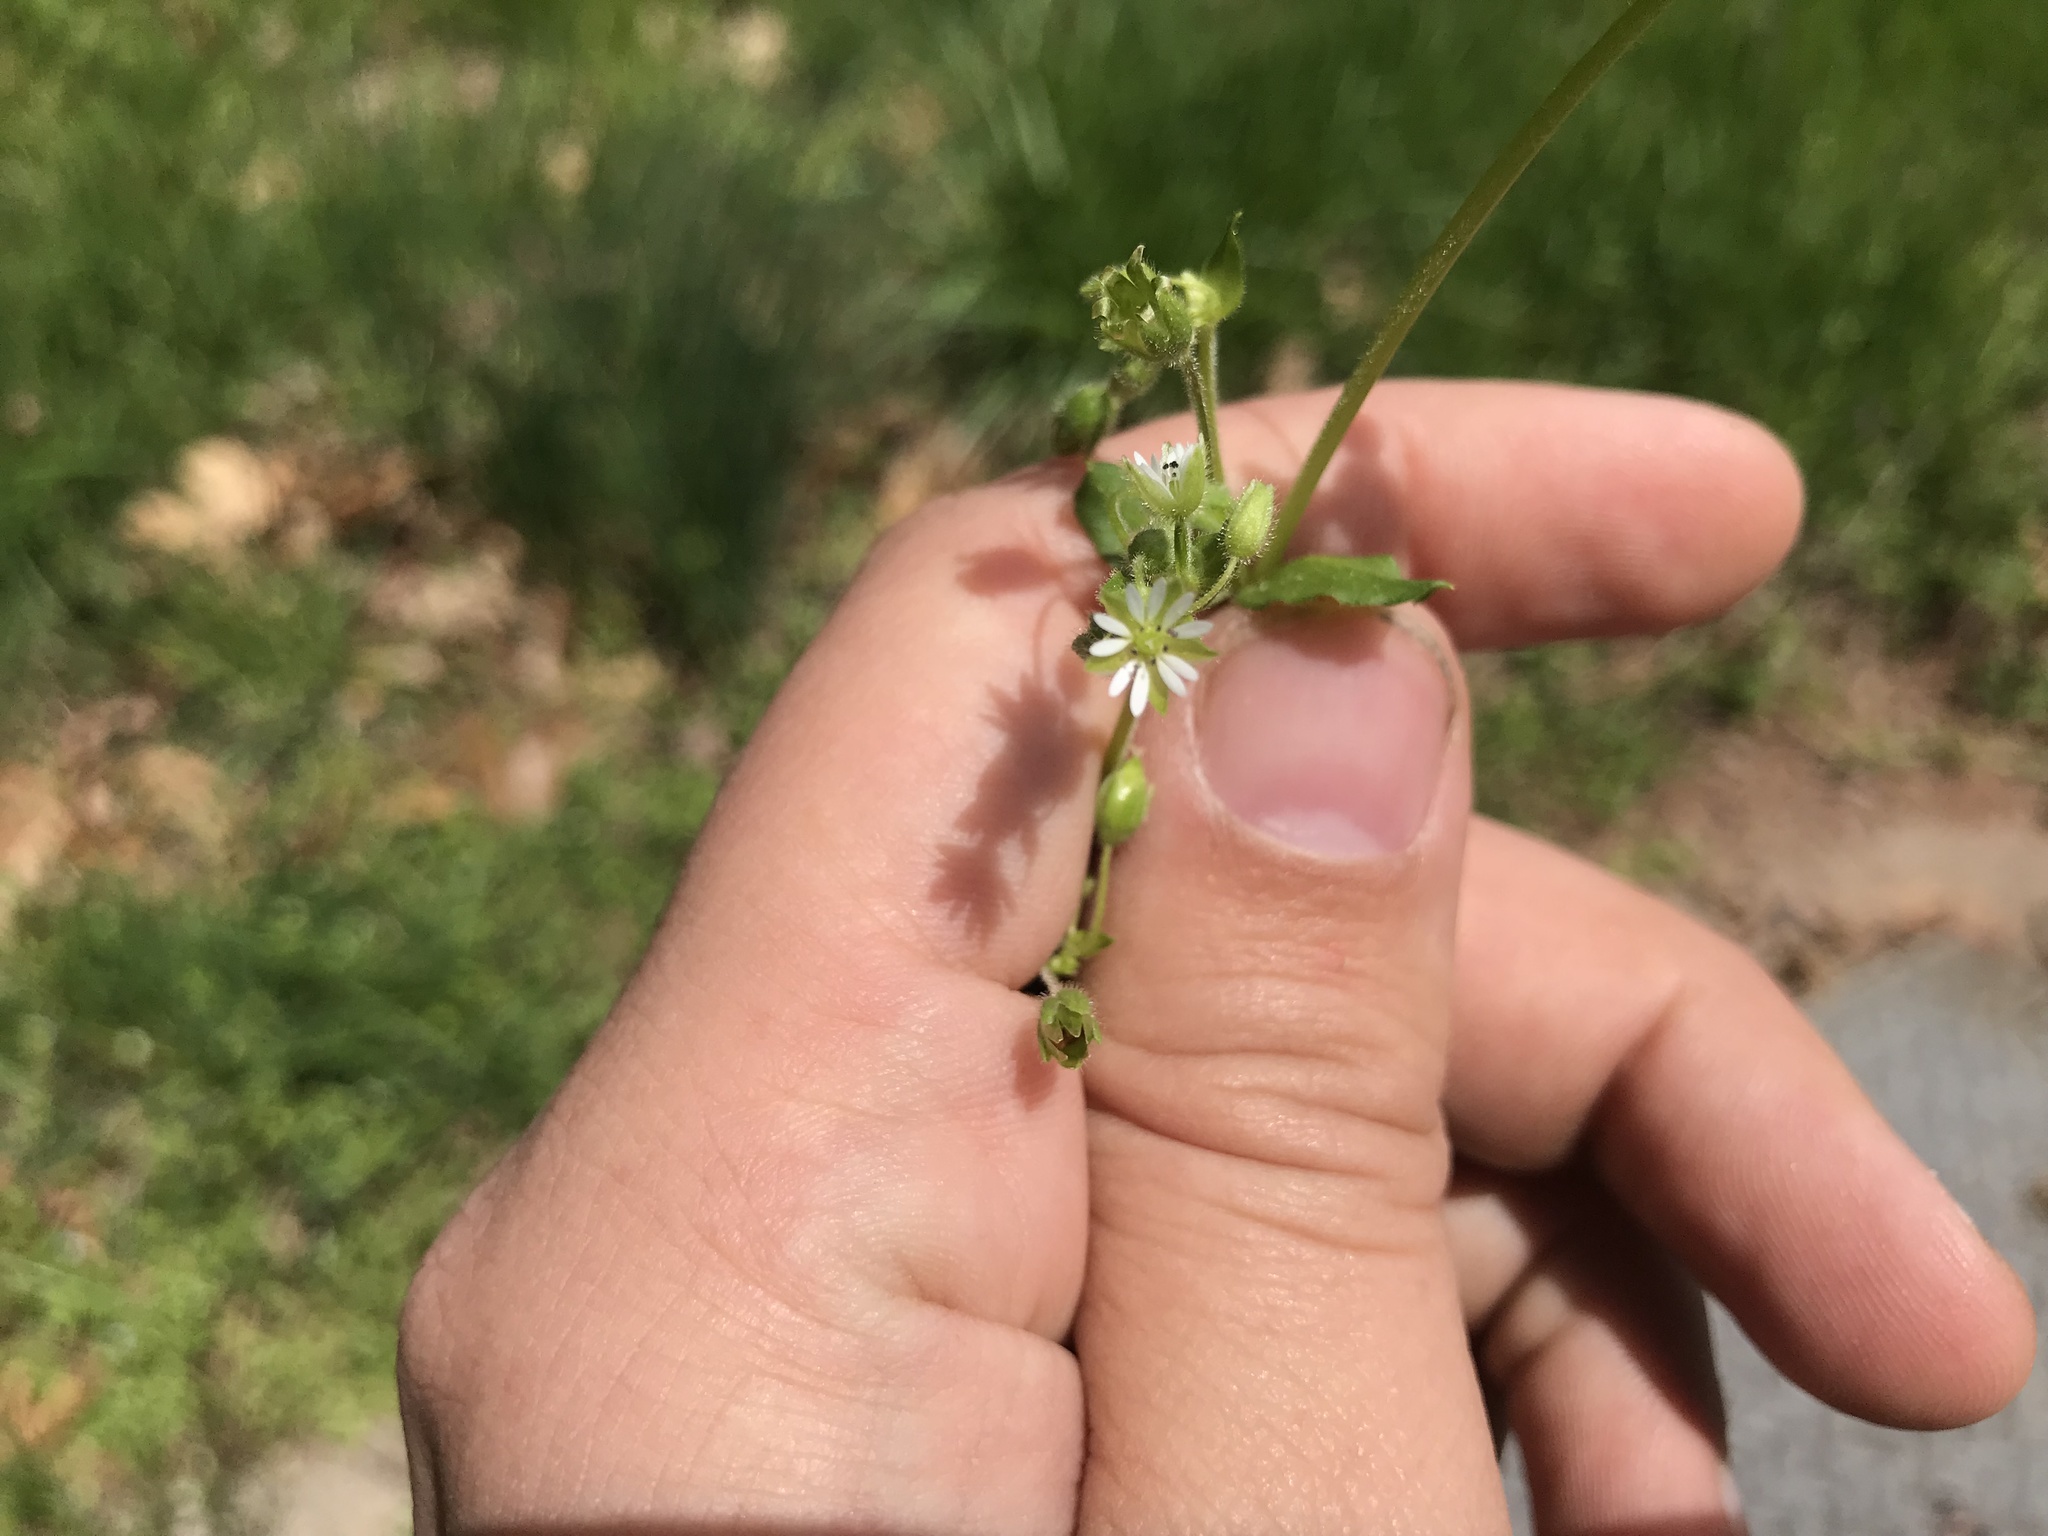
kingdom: Plantae
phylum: Tracheophyta
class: Magnoliopsida
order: Caryophyllales
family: Caryophyllaceae
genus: Stellaria
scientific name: Stellaria media
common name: Common chickweed
